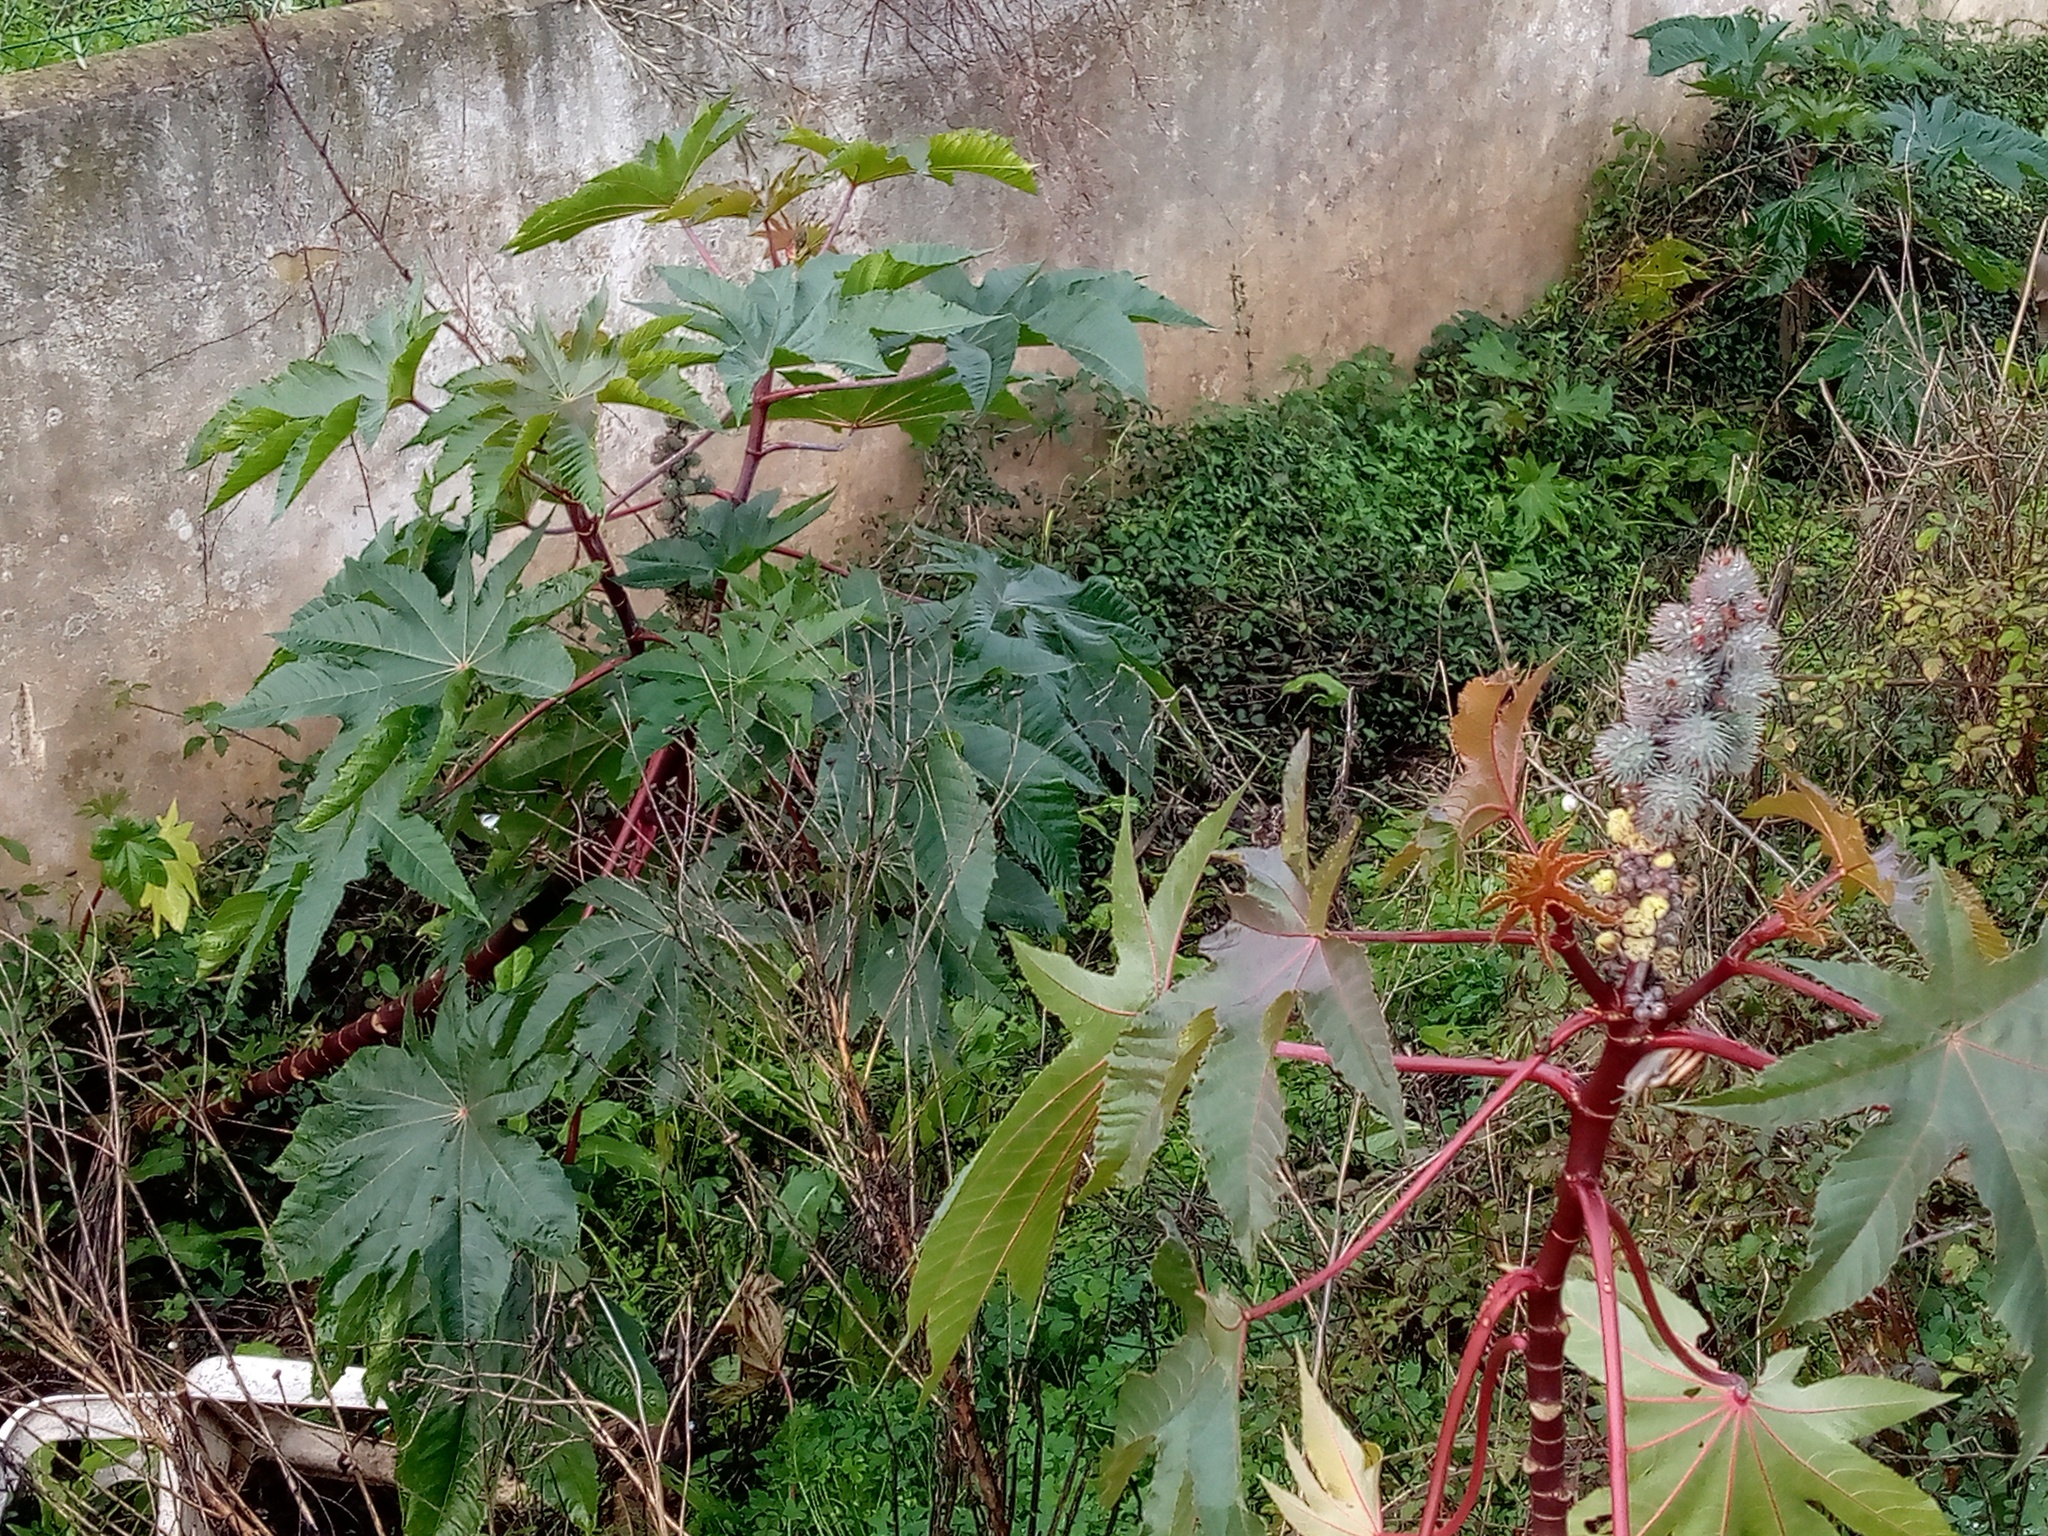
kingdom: Plantae
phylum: Tracheophyta
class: Magnoliopsida
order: Malpighiales
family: Euphorbiaceae
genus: Ricinus
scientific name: Ricinus communis
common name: Castor-oil-plant
